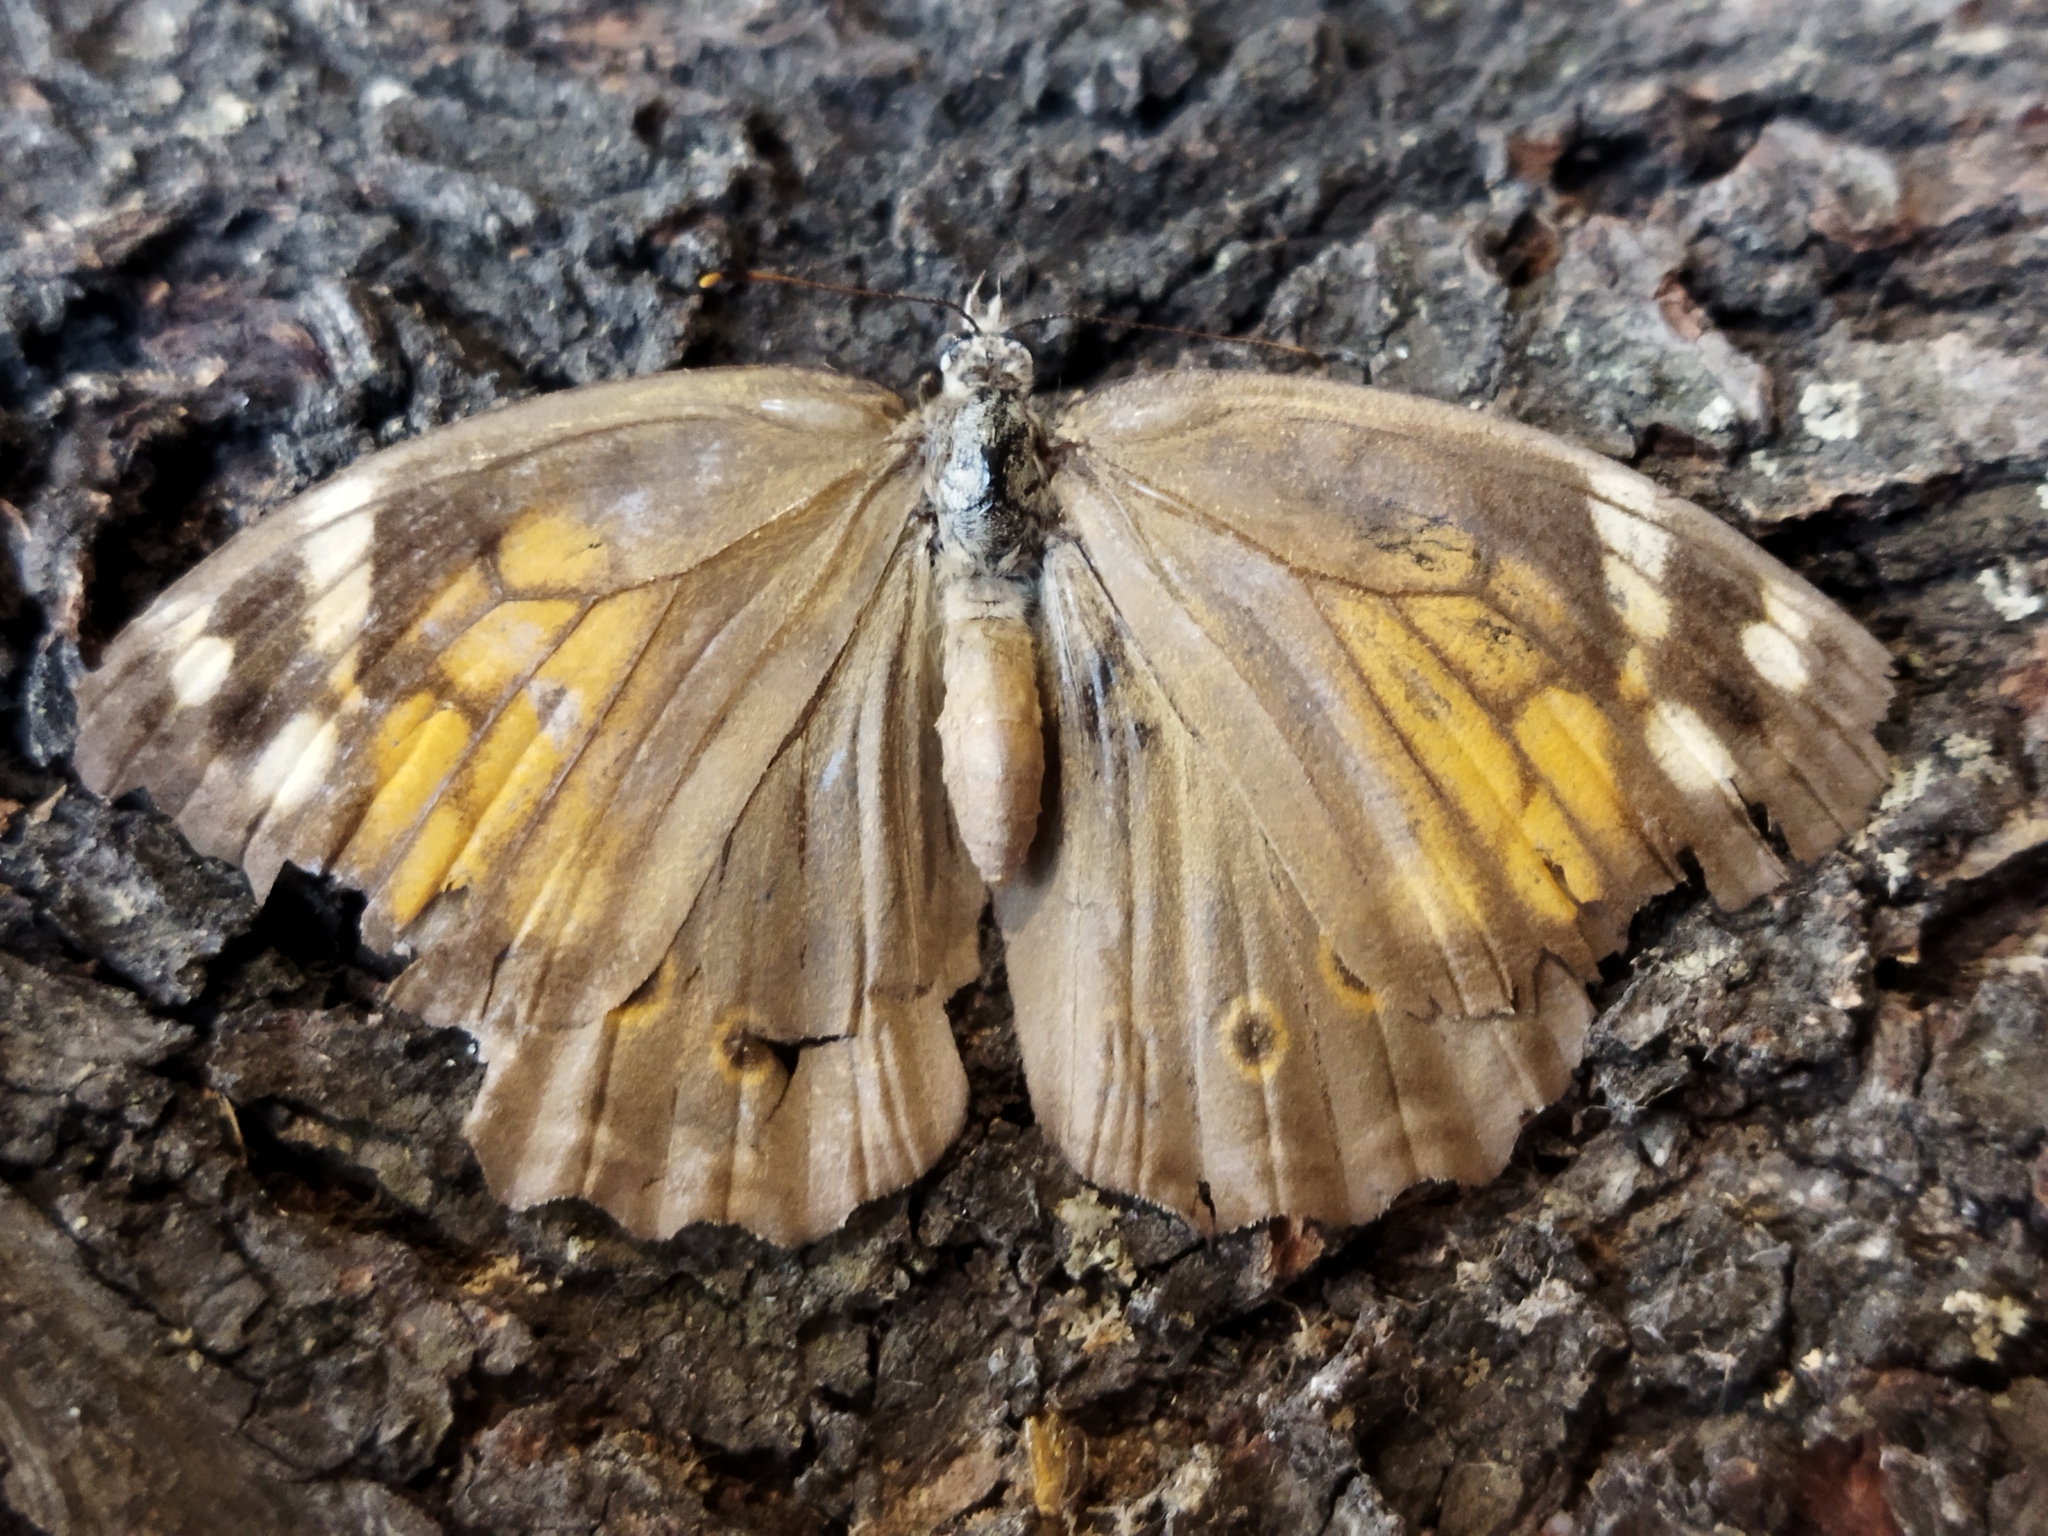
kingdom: Animalia
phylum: Arthropoda
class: Insecta
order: Lepidoptera
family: Nymphalidae
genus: Kirinia
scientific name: Kirinia roxelana
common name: Lattice brown
